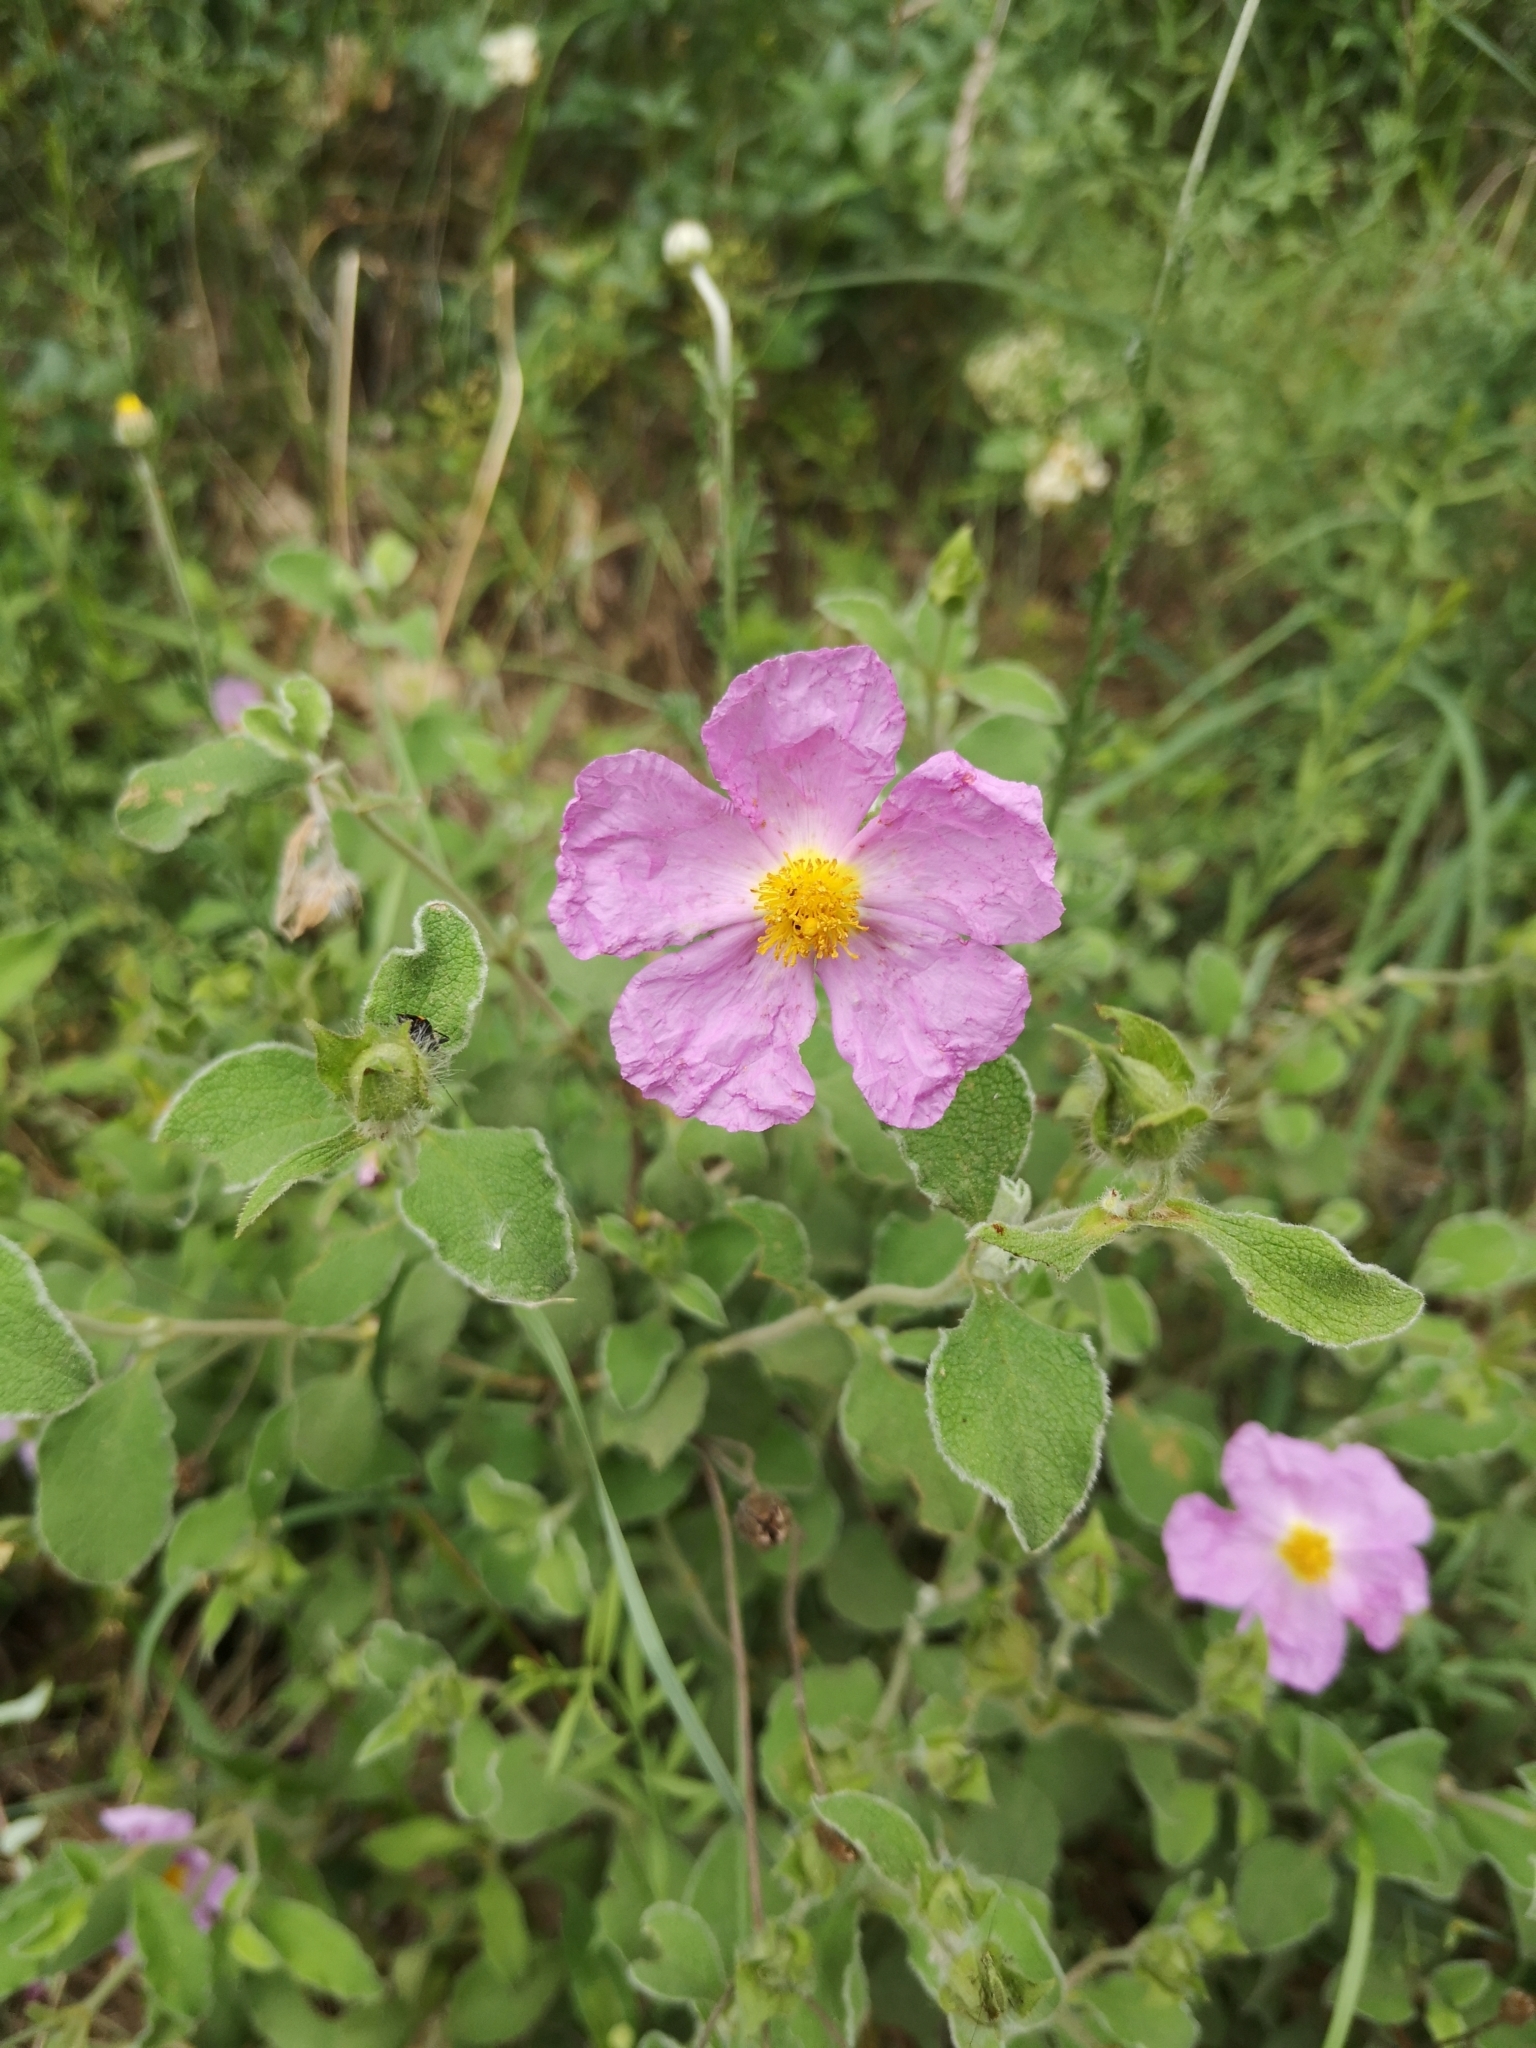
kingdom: Plantae
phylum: Tracheophyta
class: Magnoliopsida
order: Malvales
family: Cistaceae
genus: Cistus
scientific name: Cistus tauricus
